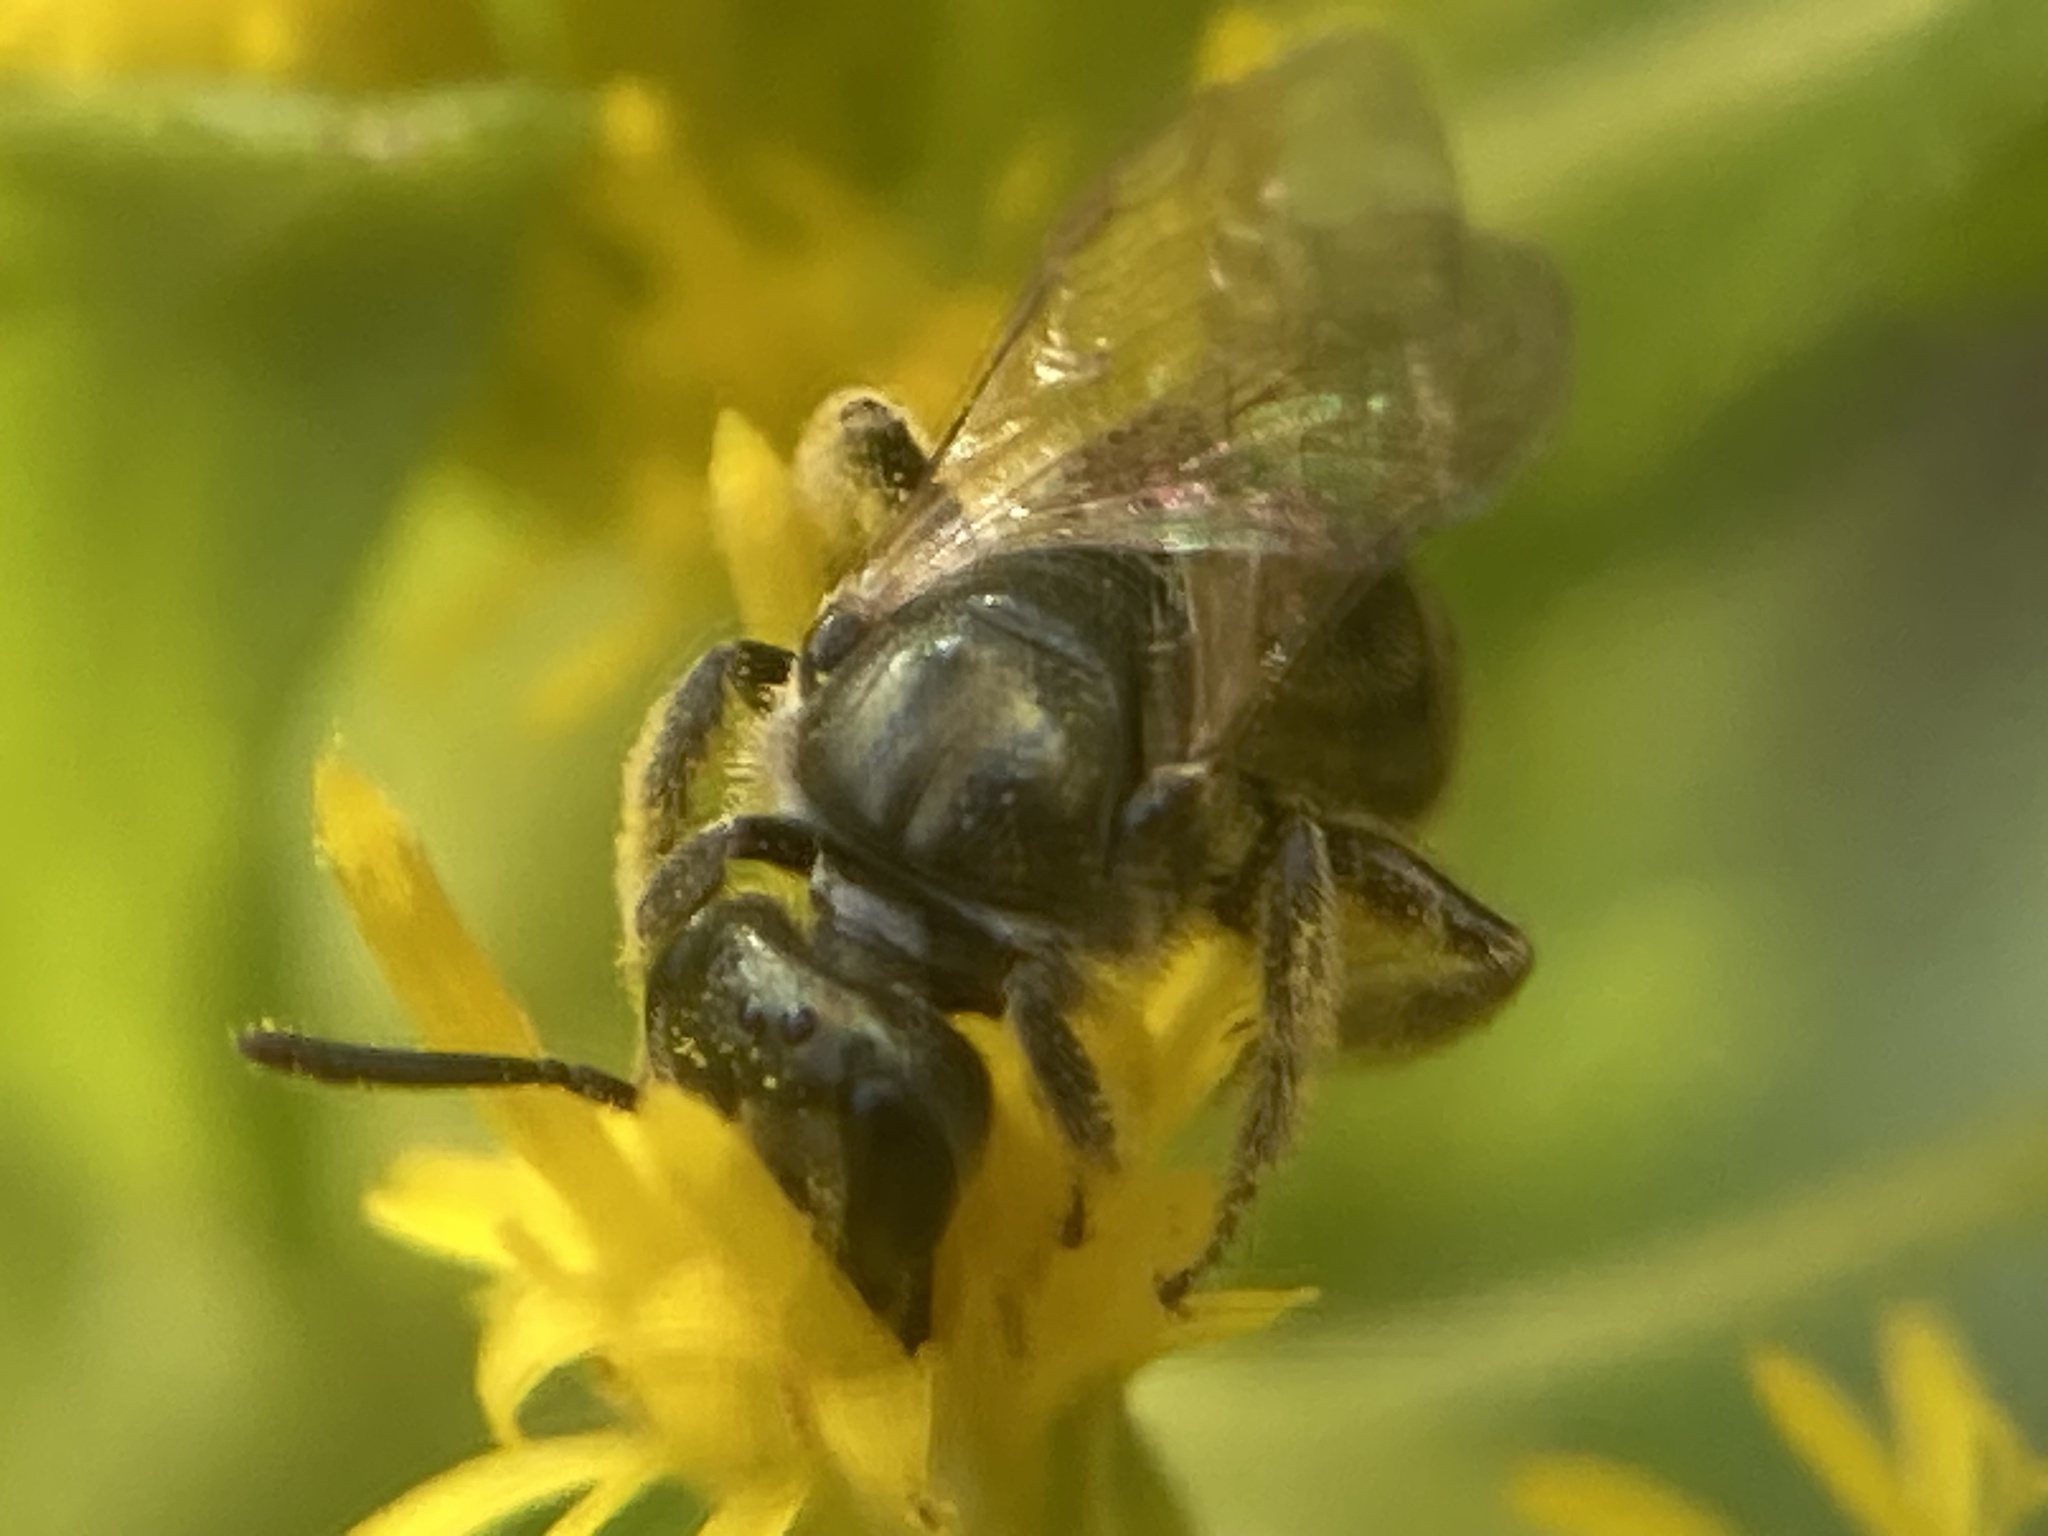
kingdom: Animalia
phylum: Arthropoda
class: Insecta
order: Hymenoptera
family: Halictidae
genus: Dialictus
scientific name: Dialictus
